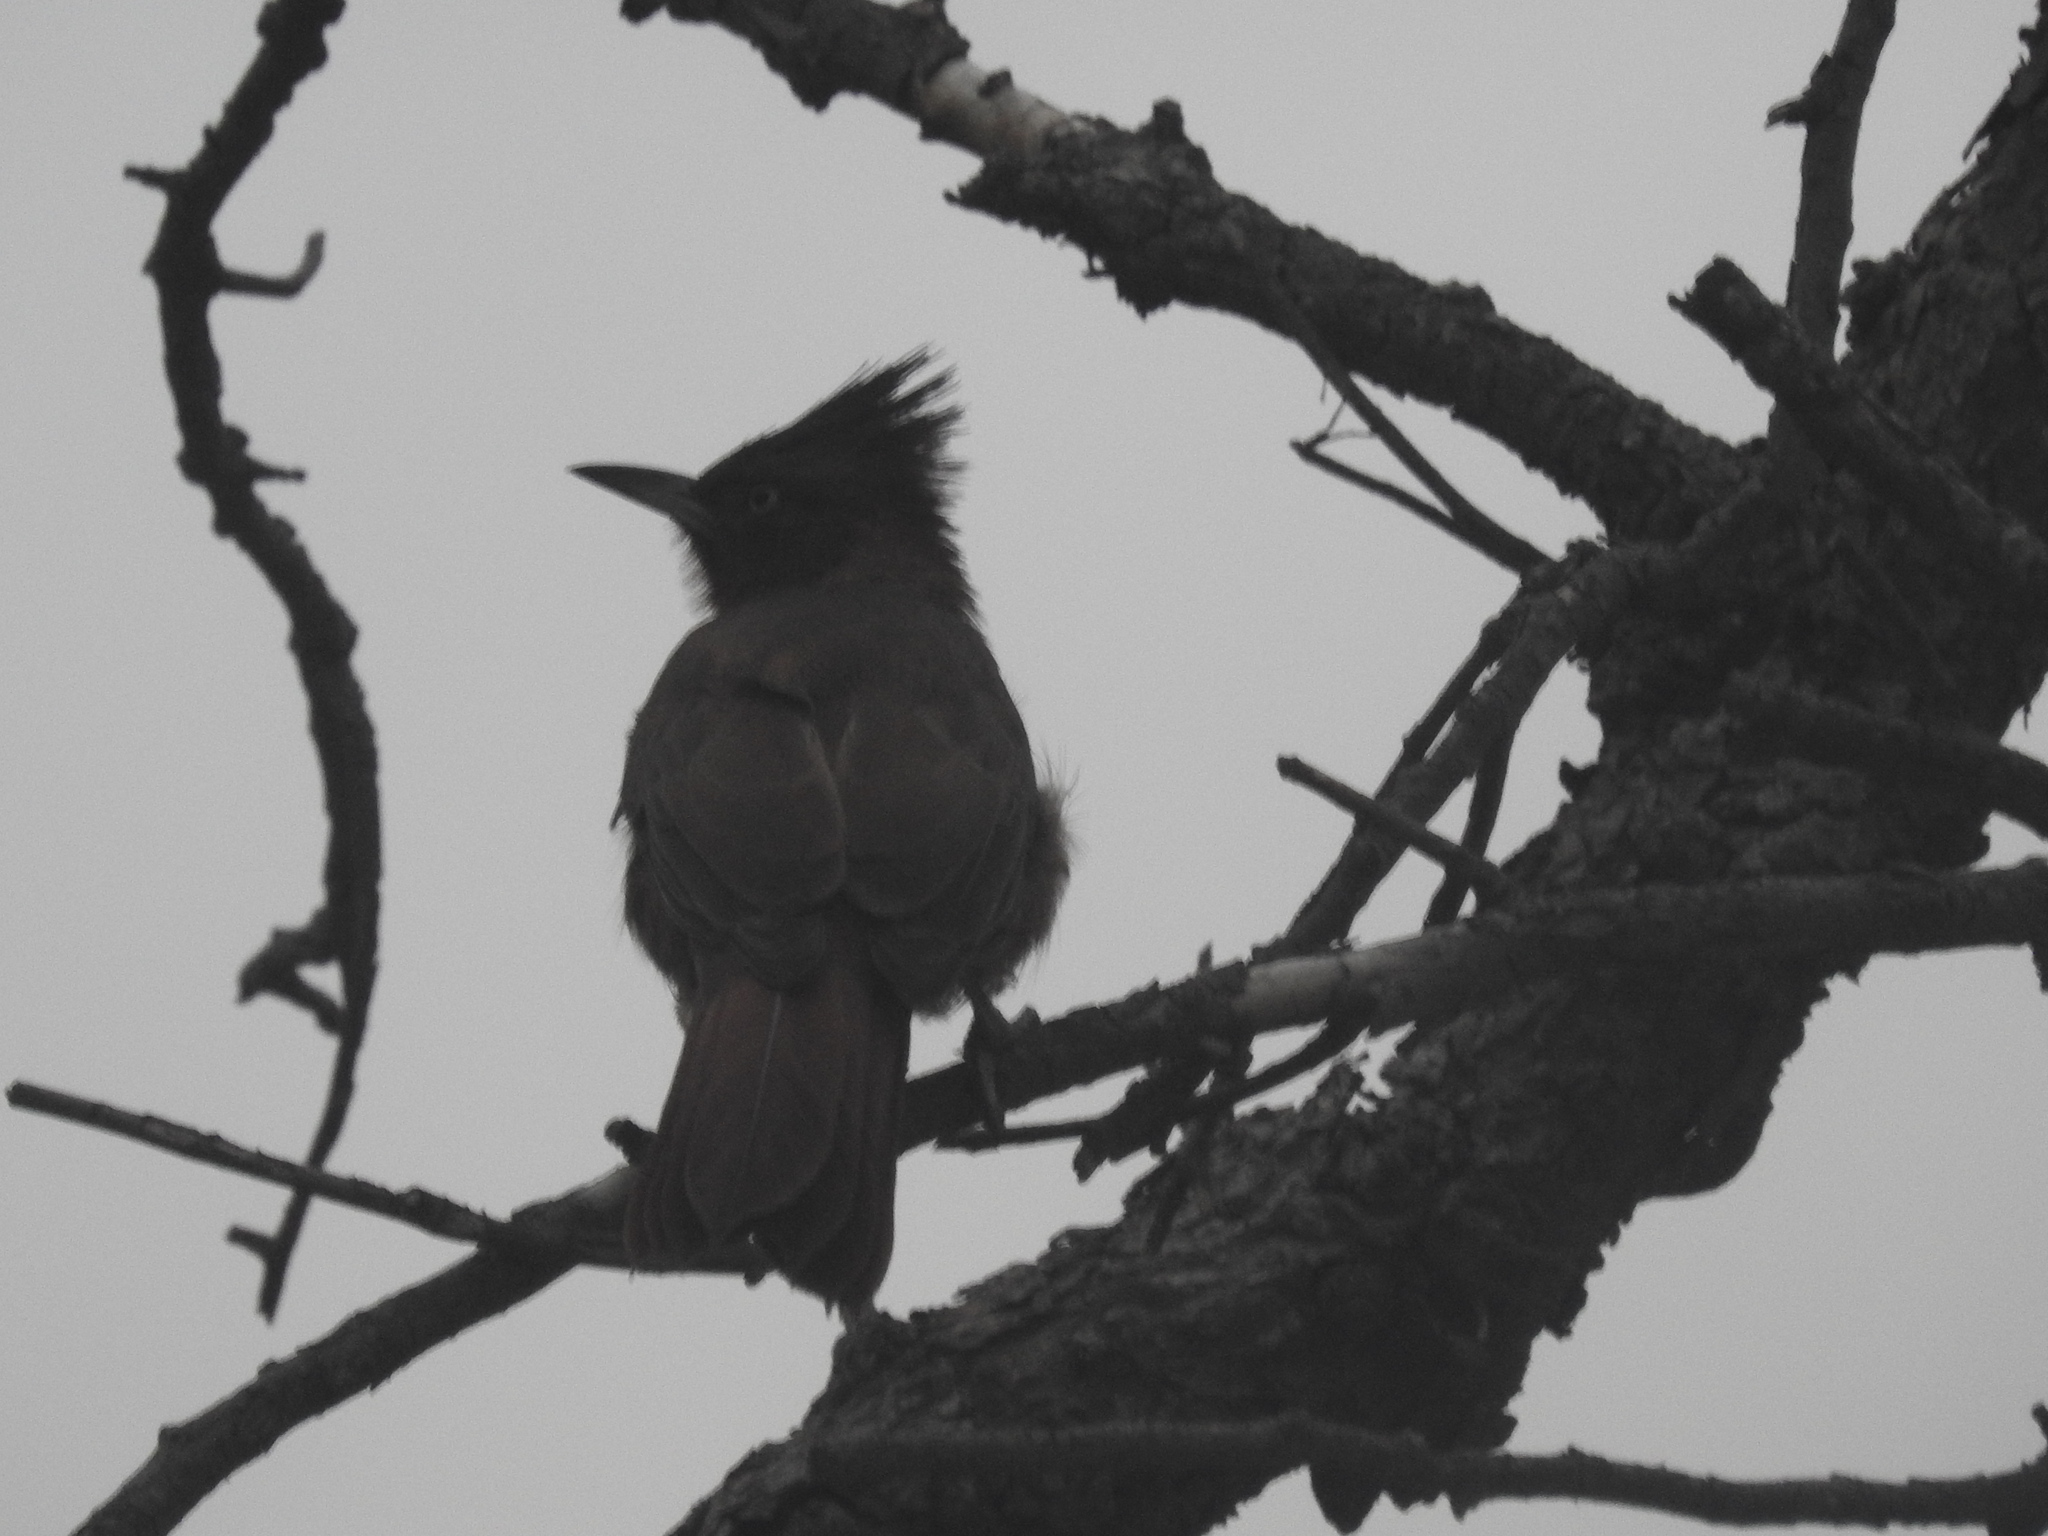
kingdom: Animalia
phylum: Chordata
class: Aves
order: Passeriformes
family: Furnariidae
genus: Pseudoseisura
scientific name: Pseudoseisura lophotes
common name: Brown cacholote
